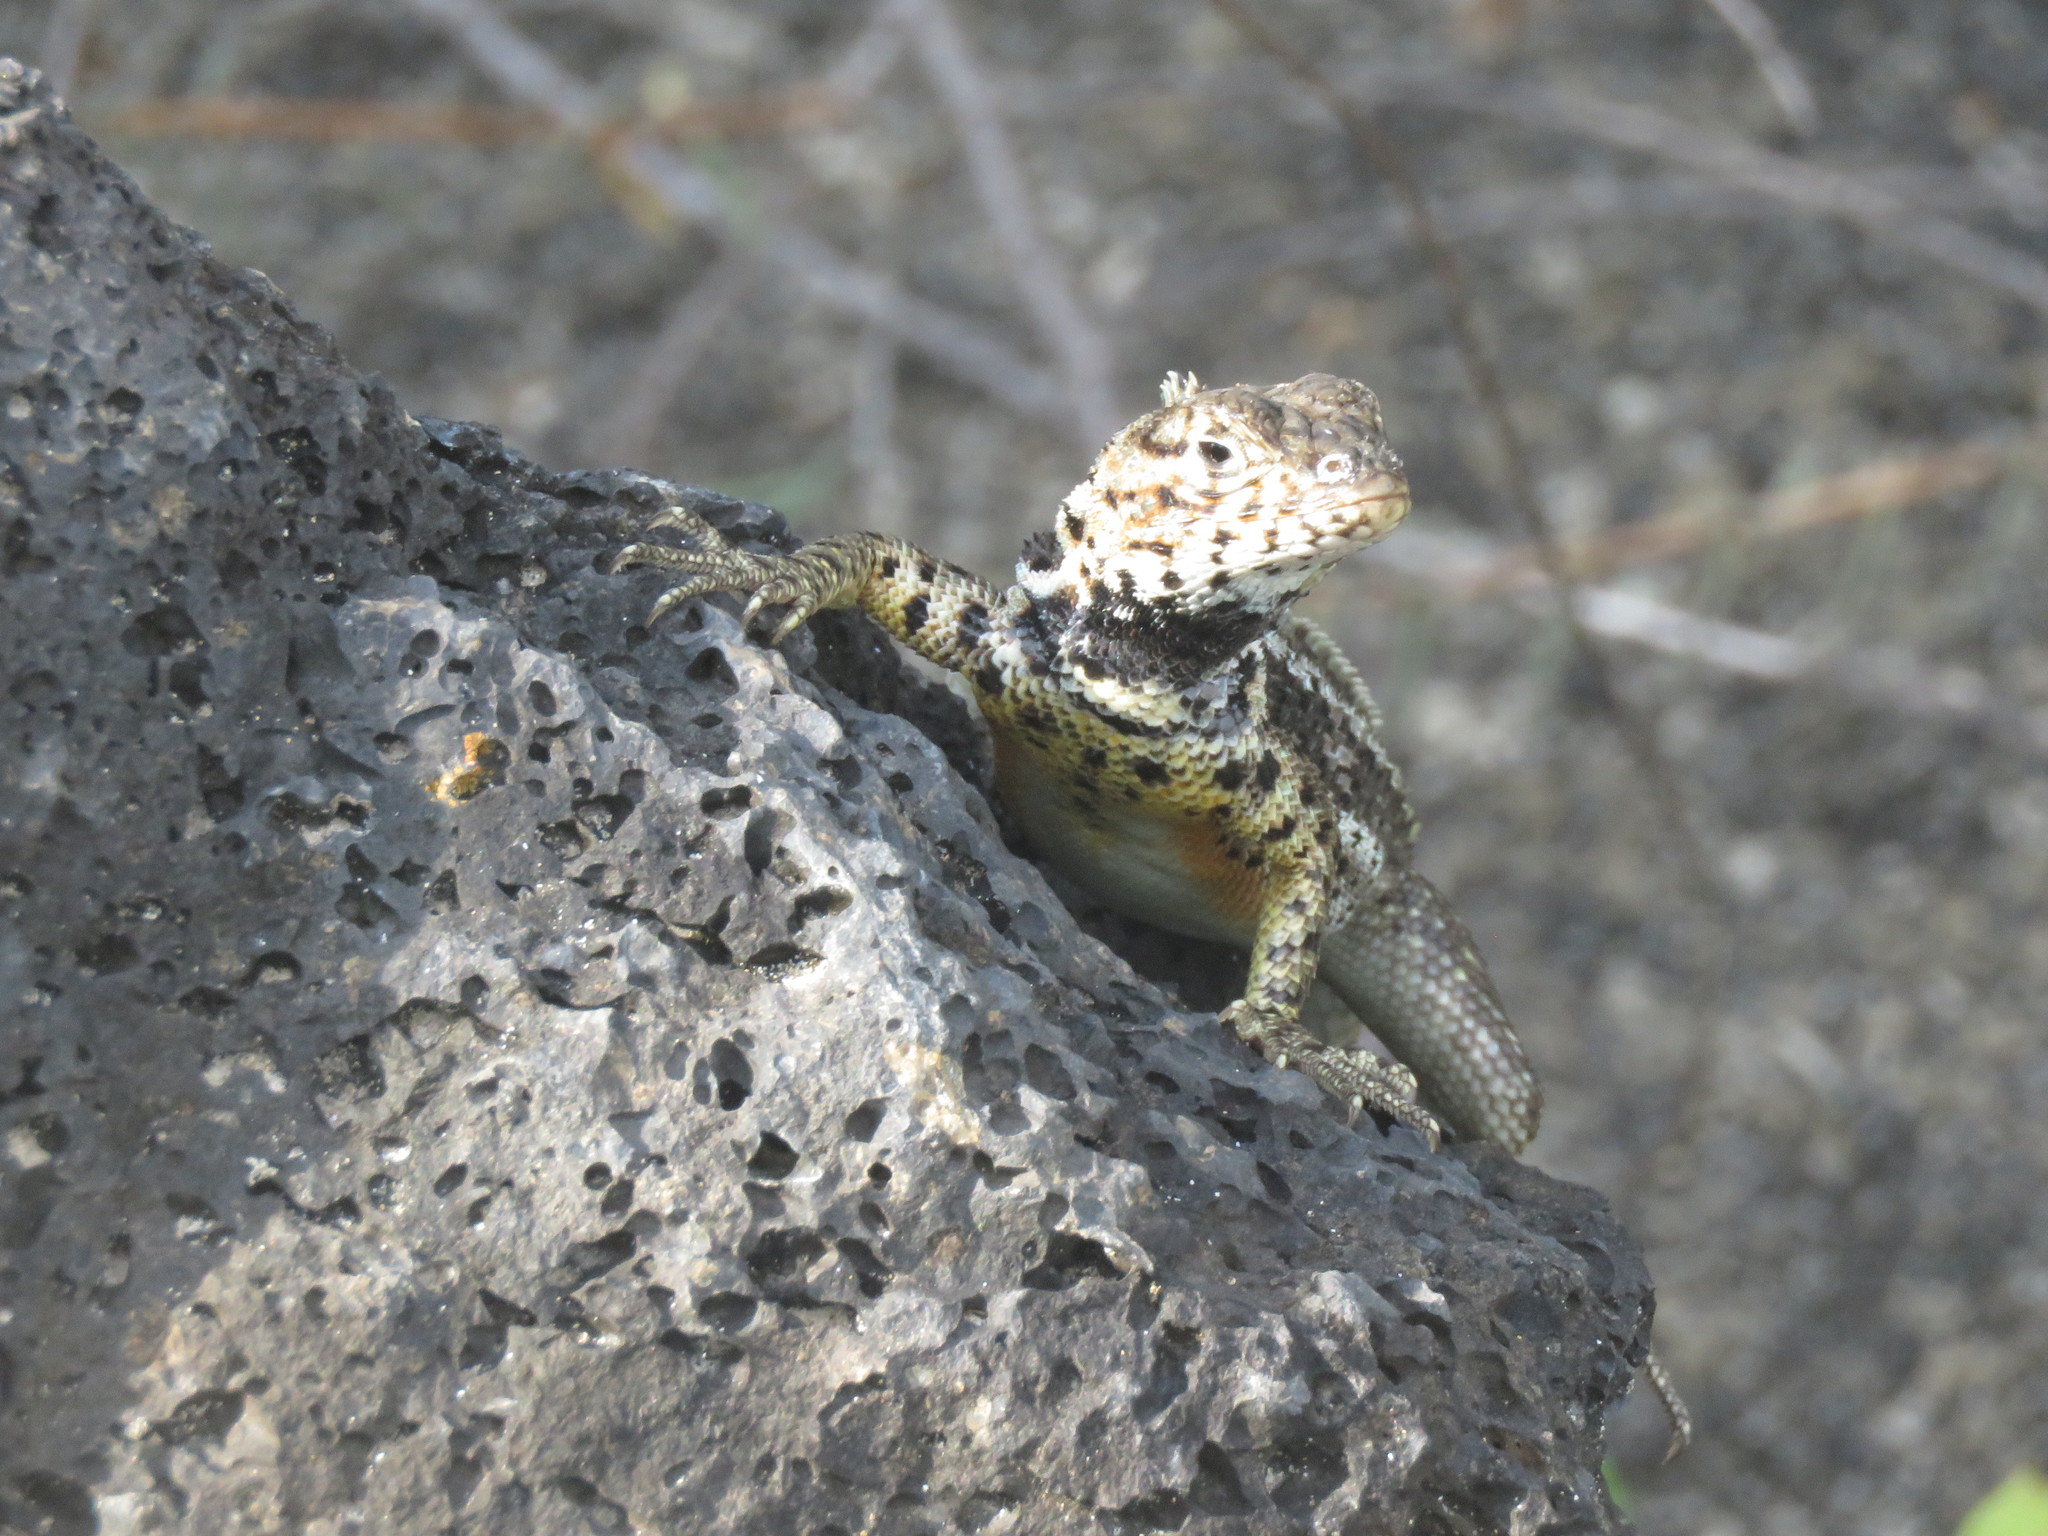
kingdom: Animalia
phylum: Chordata
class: Squamata
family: Tropiduridae
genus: Microlophus
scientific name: Microlophus albemarlensis
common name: Galapagos lava lizard
